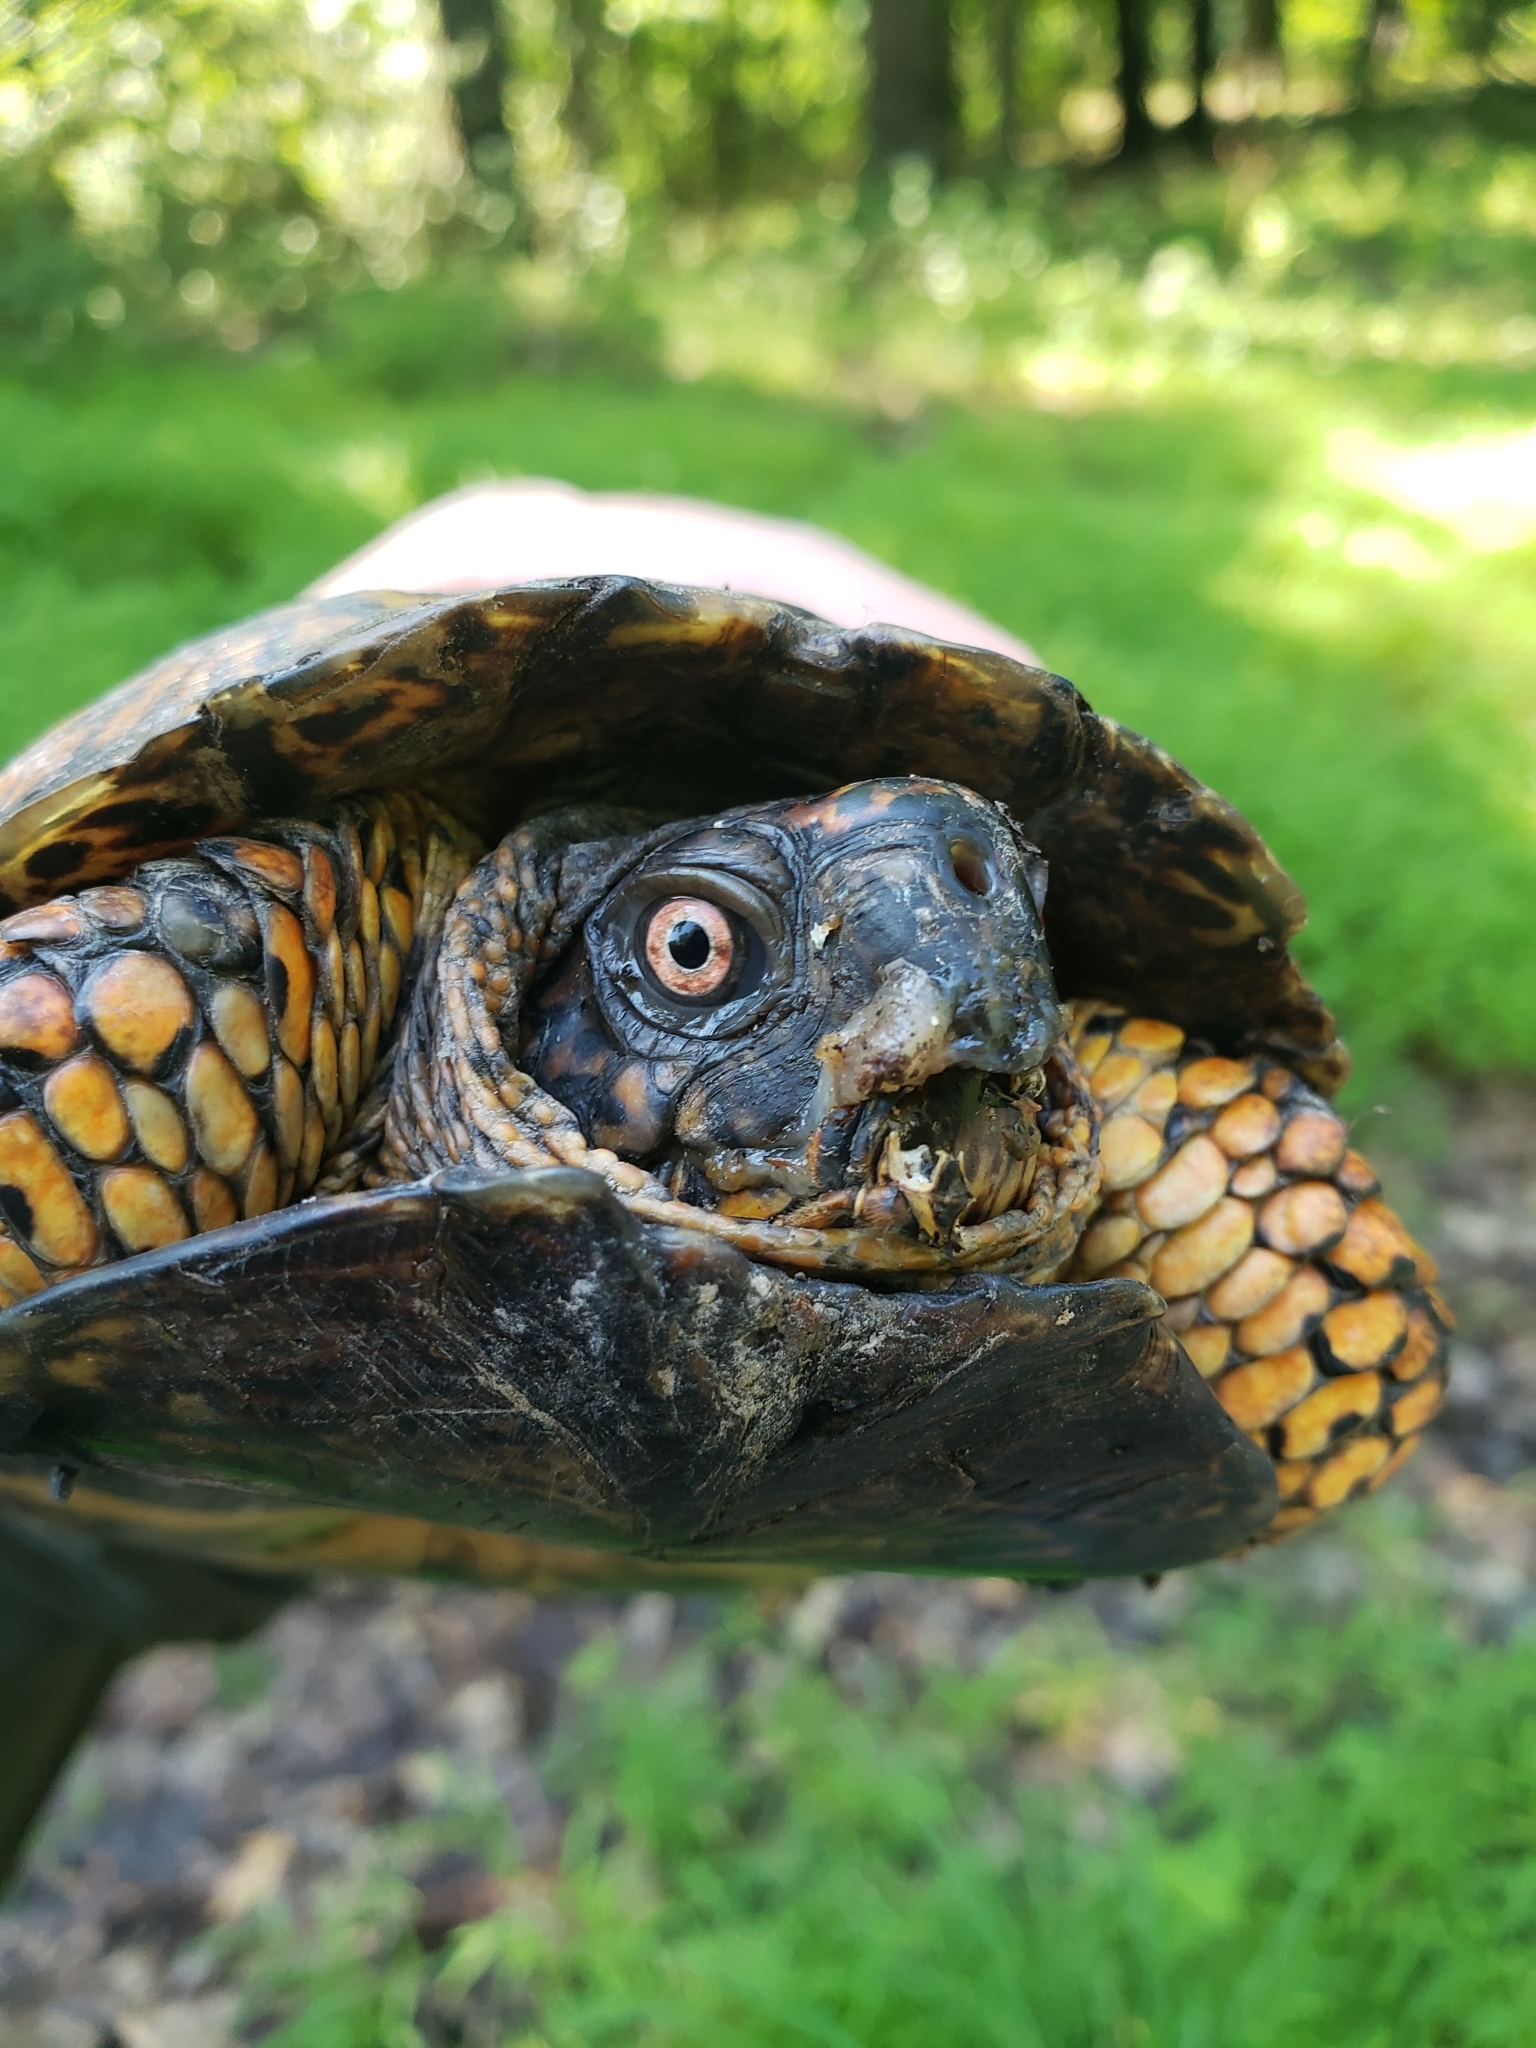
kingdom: Animalia
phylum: Chordata
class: Testudines
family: Emydidae
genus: Terrapene
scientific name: Terrapene carolina
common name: Common box turtle
